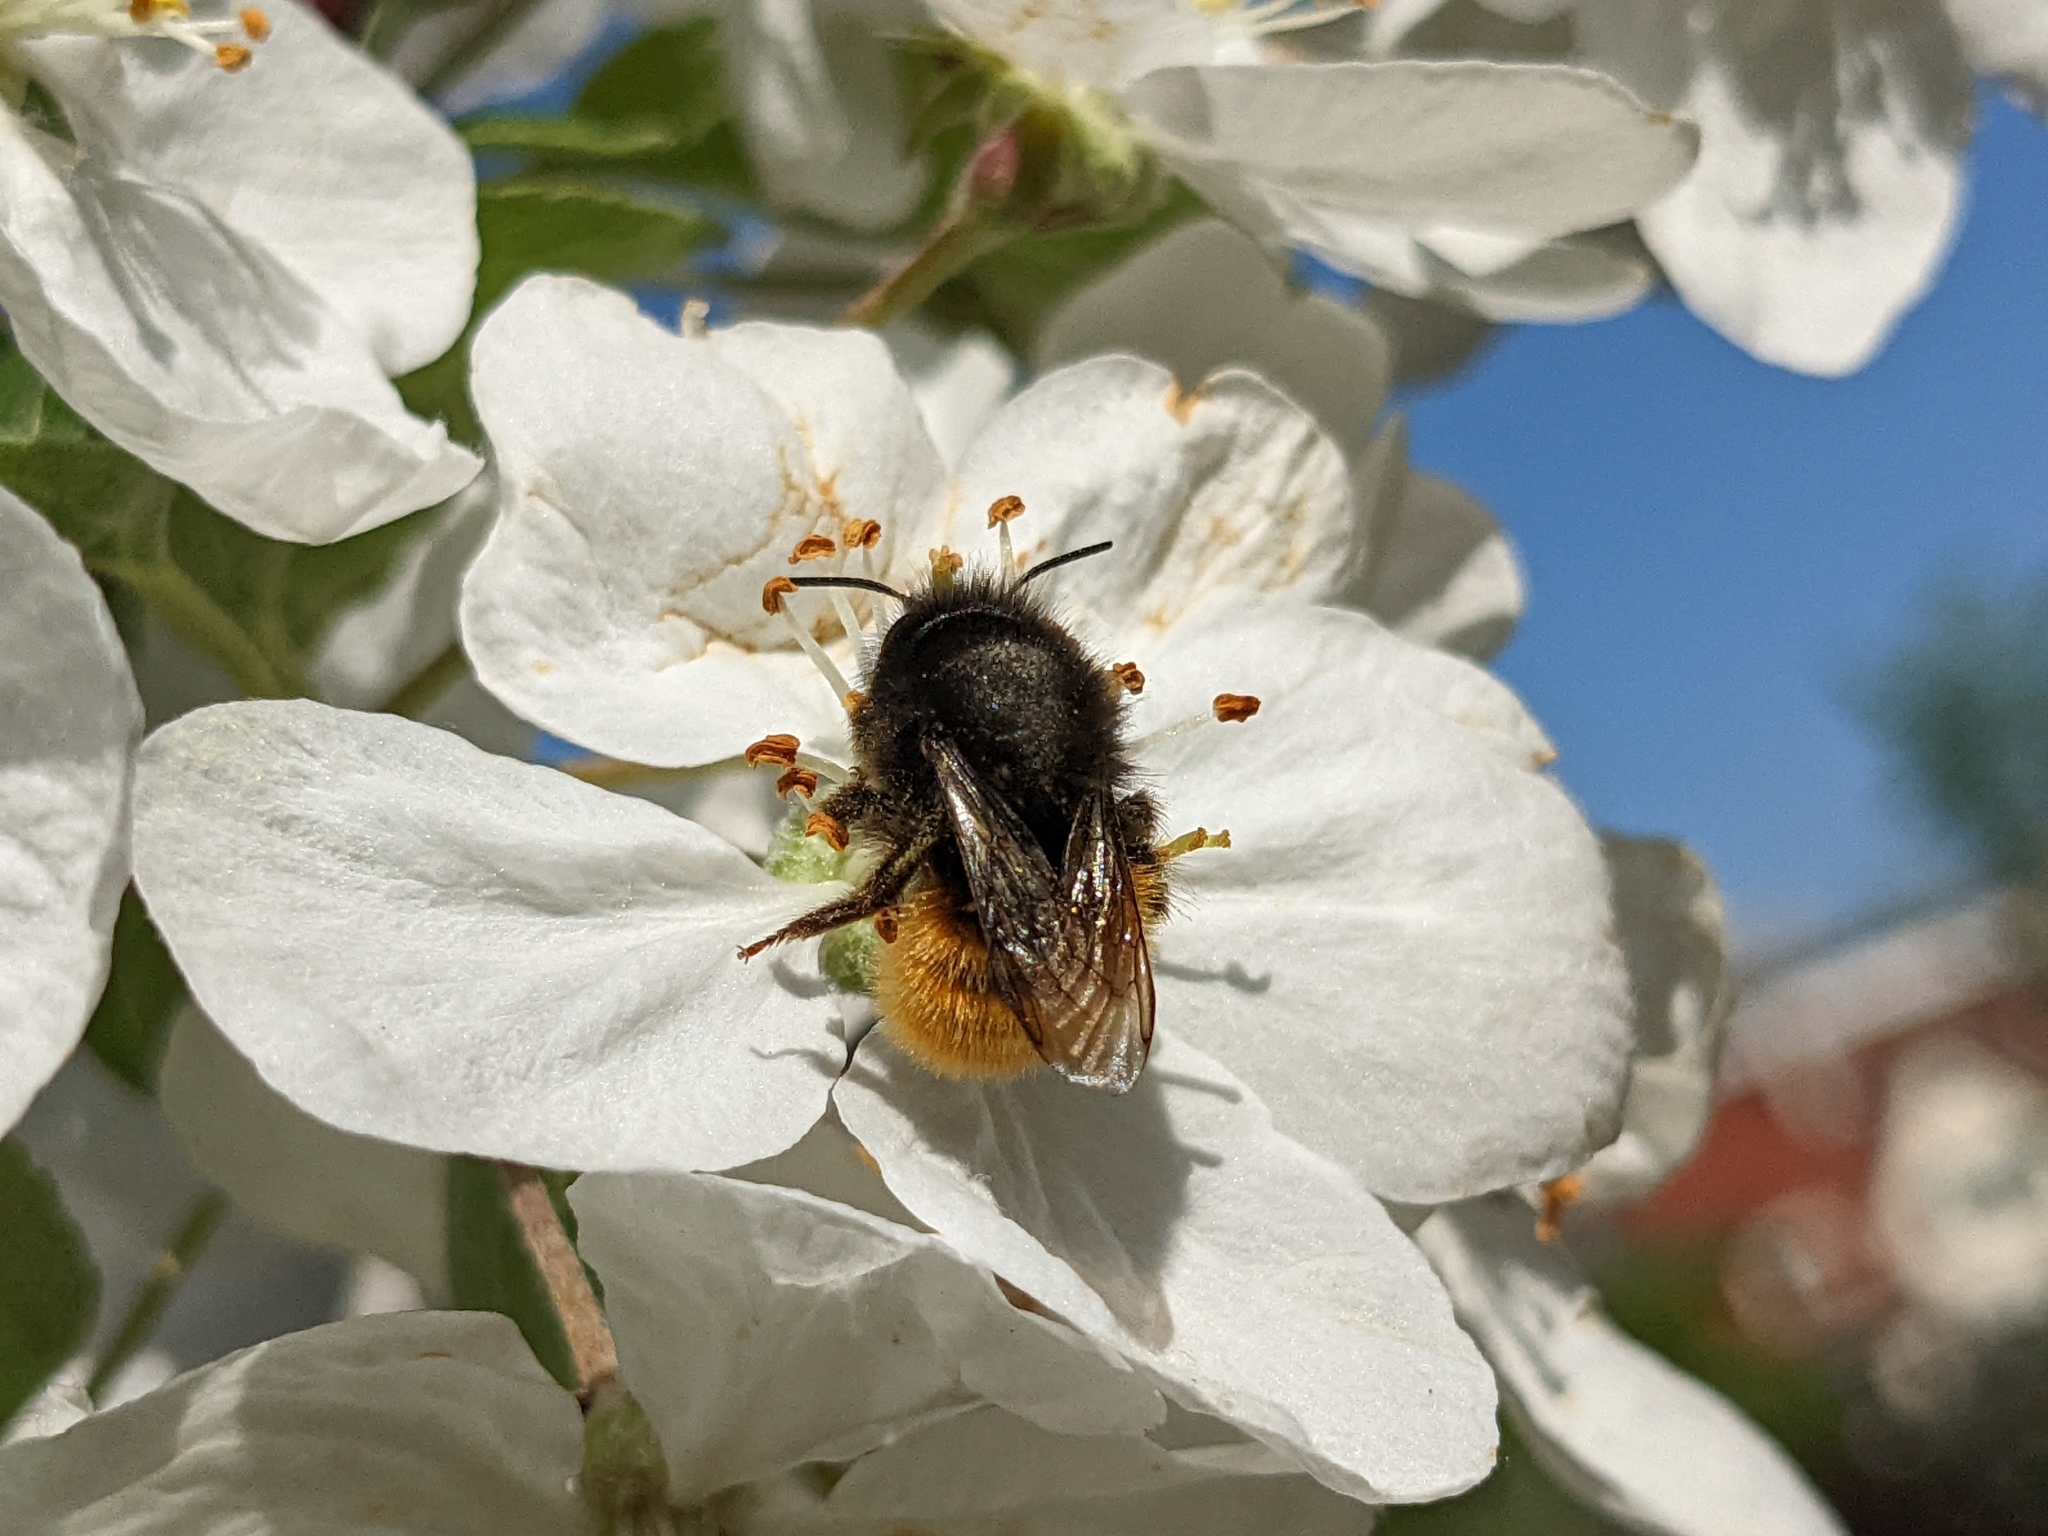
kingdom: Animalia
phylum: Arthropoda
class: Insecta
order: Hymenoptera
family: Megachilidae
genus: Osmia
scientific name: Osmia cornuta
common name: Mason bee
